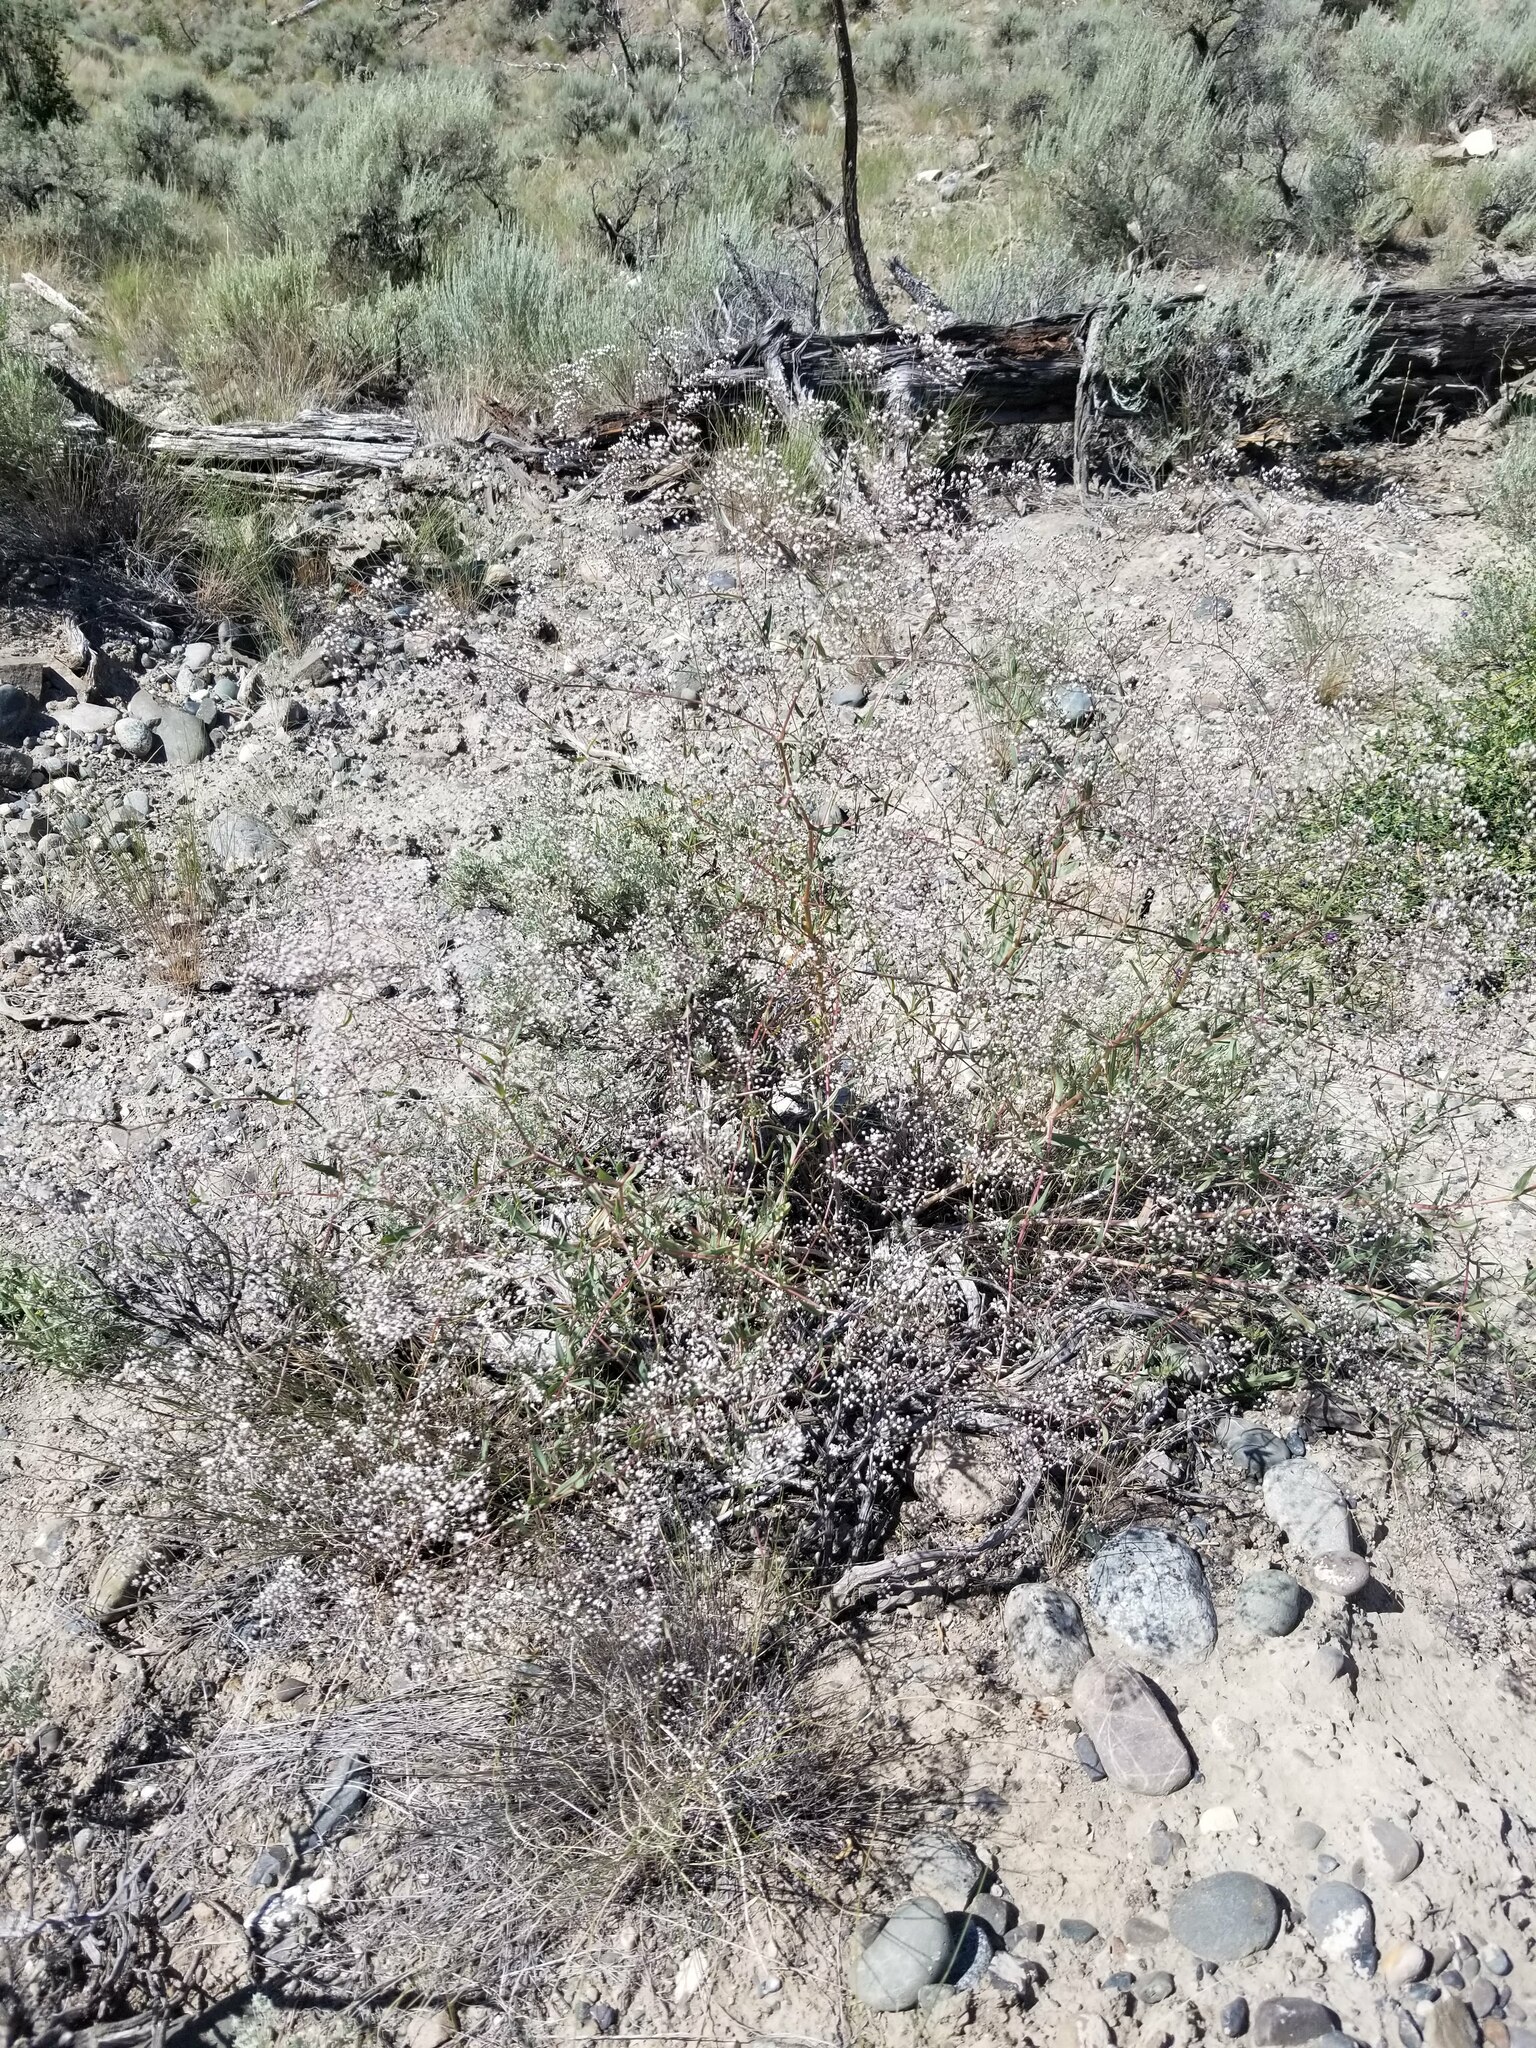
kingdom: Plantae
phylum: Tracheophyta
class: Magnoliopsida
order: Caryophyllales
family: Caryophyllaceae
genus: Gypsophila
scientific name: Gypsophila paniculata
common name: Baby's-breath
